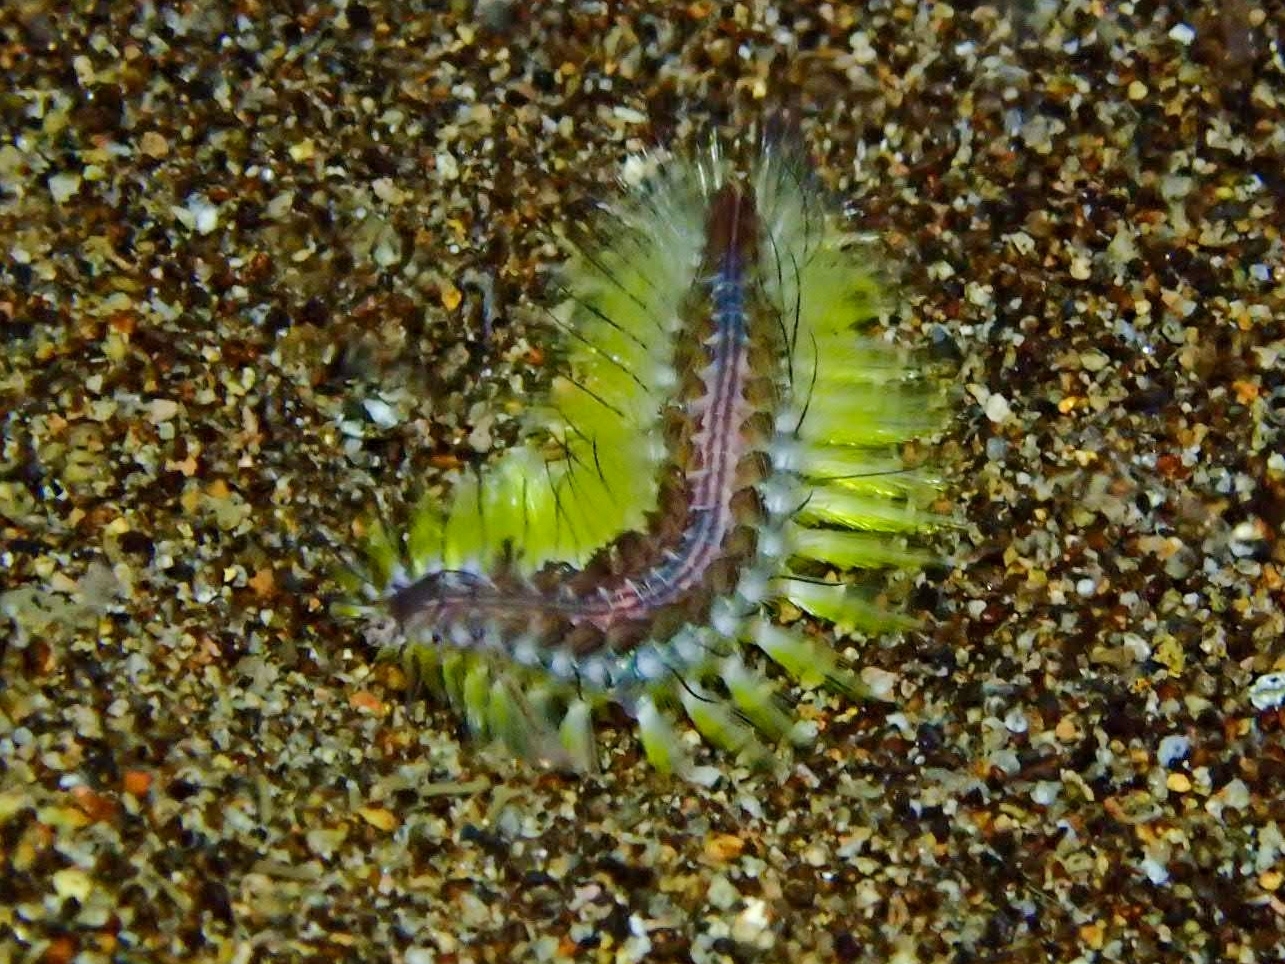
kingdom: Animalia
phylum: Annelida
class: Polychaeta
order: Amphinomida
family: Amphinomidae
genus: Chloeia
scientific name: Chloeia fusca
